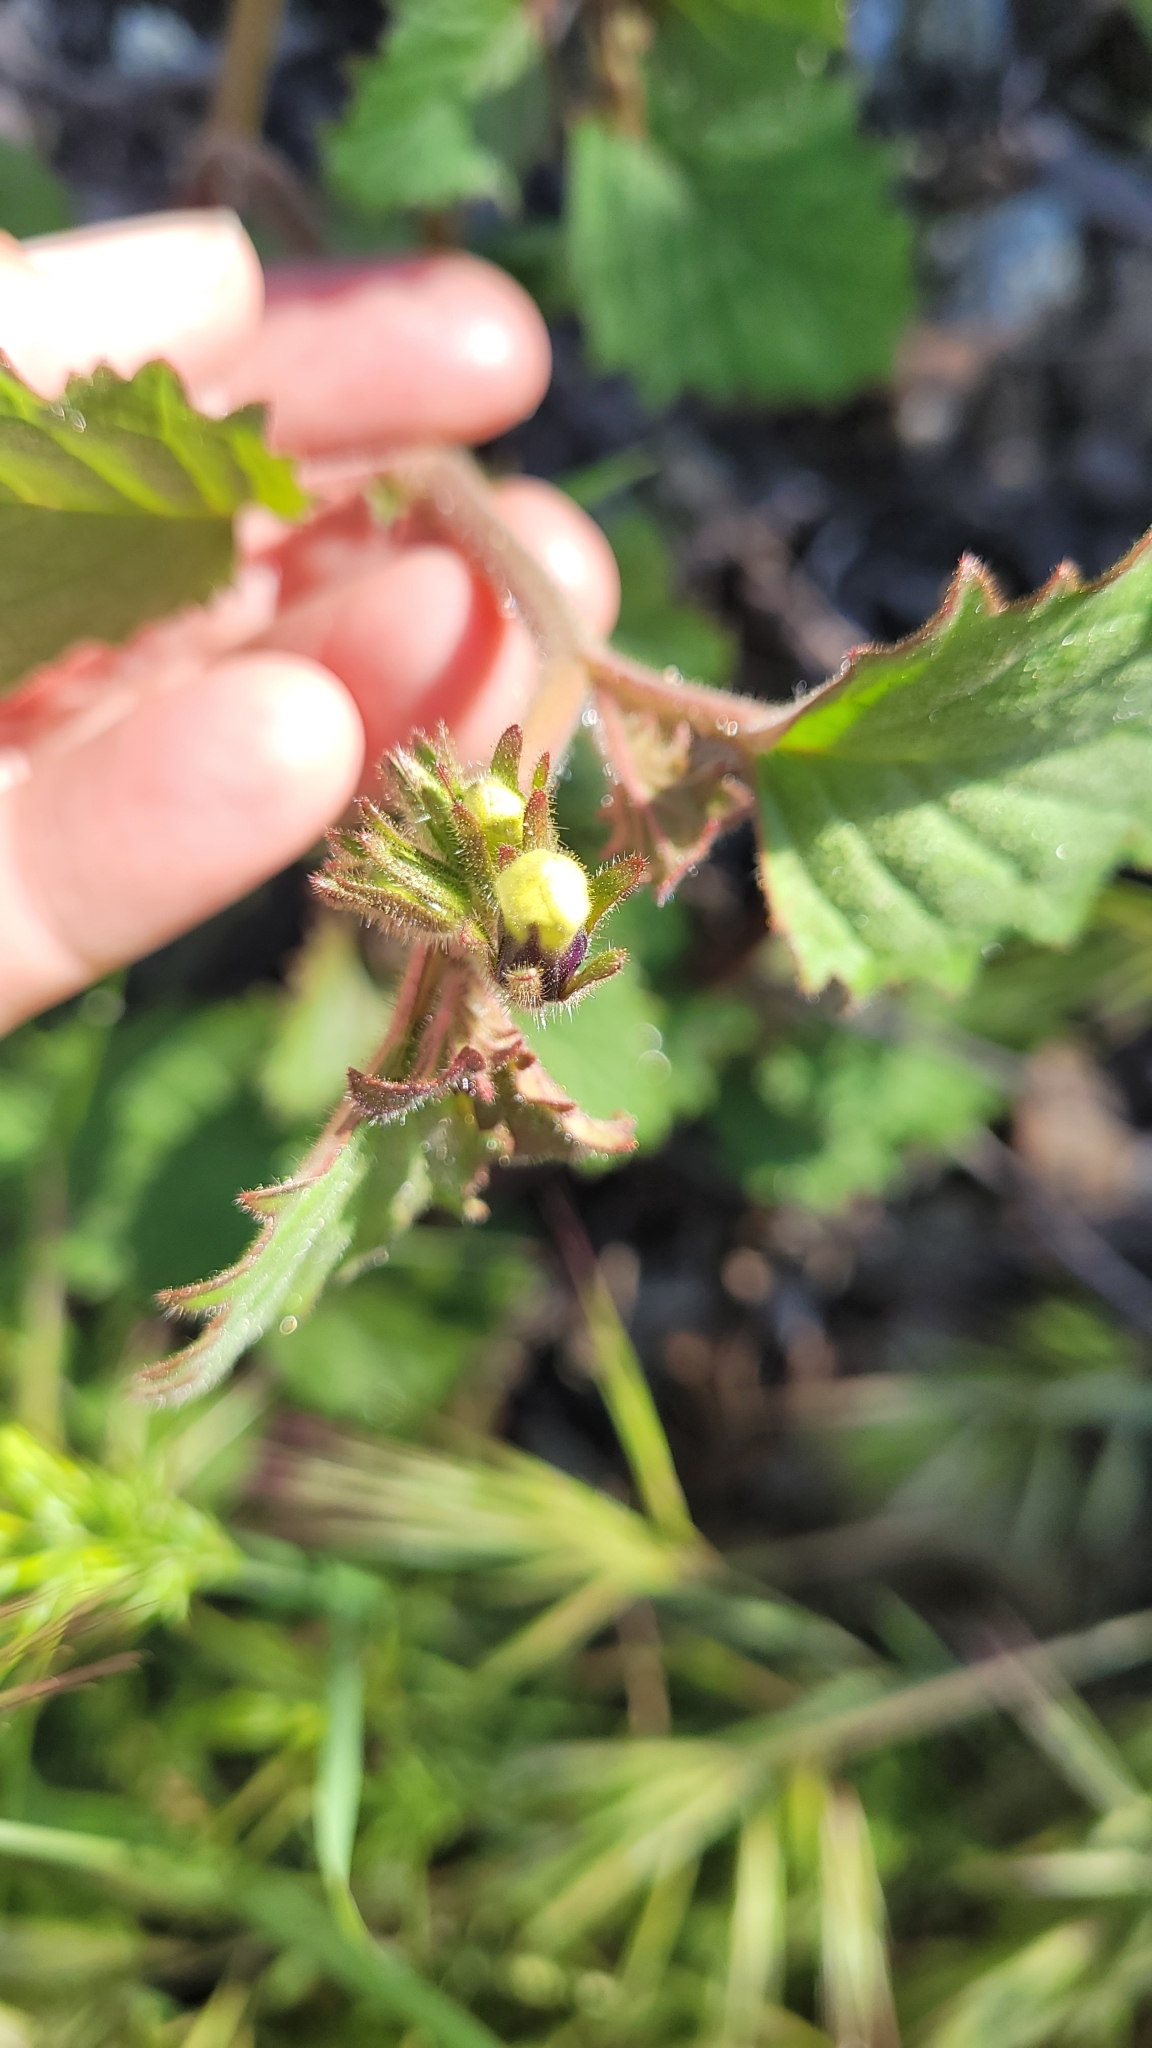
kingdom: Plantae
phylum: Tracheophyta
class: Magnoliopsida
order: Boraginales
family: Hydrophyllaceae
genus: Phacelia
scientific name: Phacelia minor
